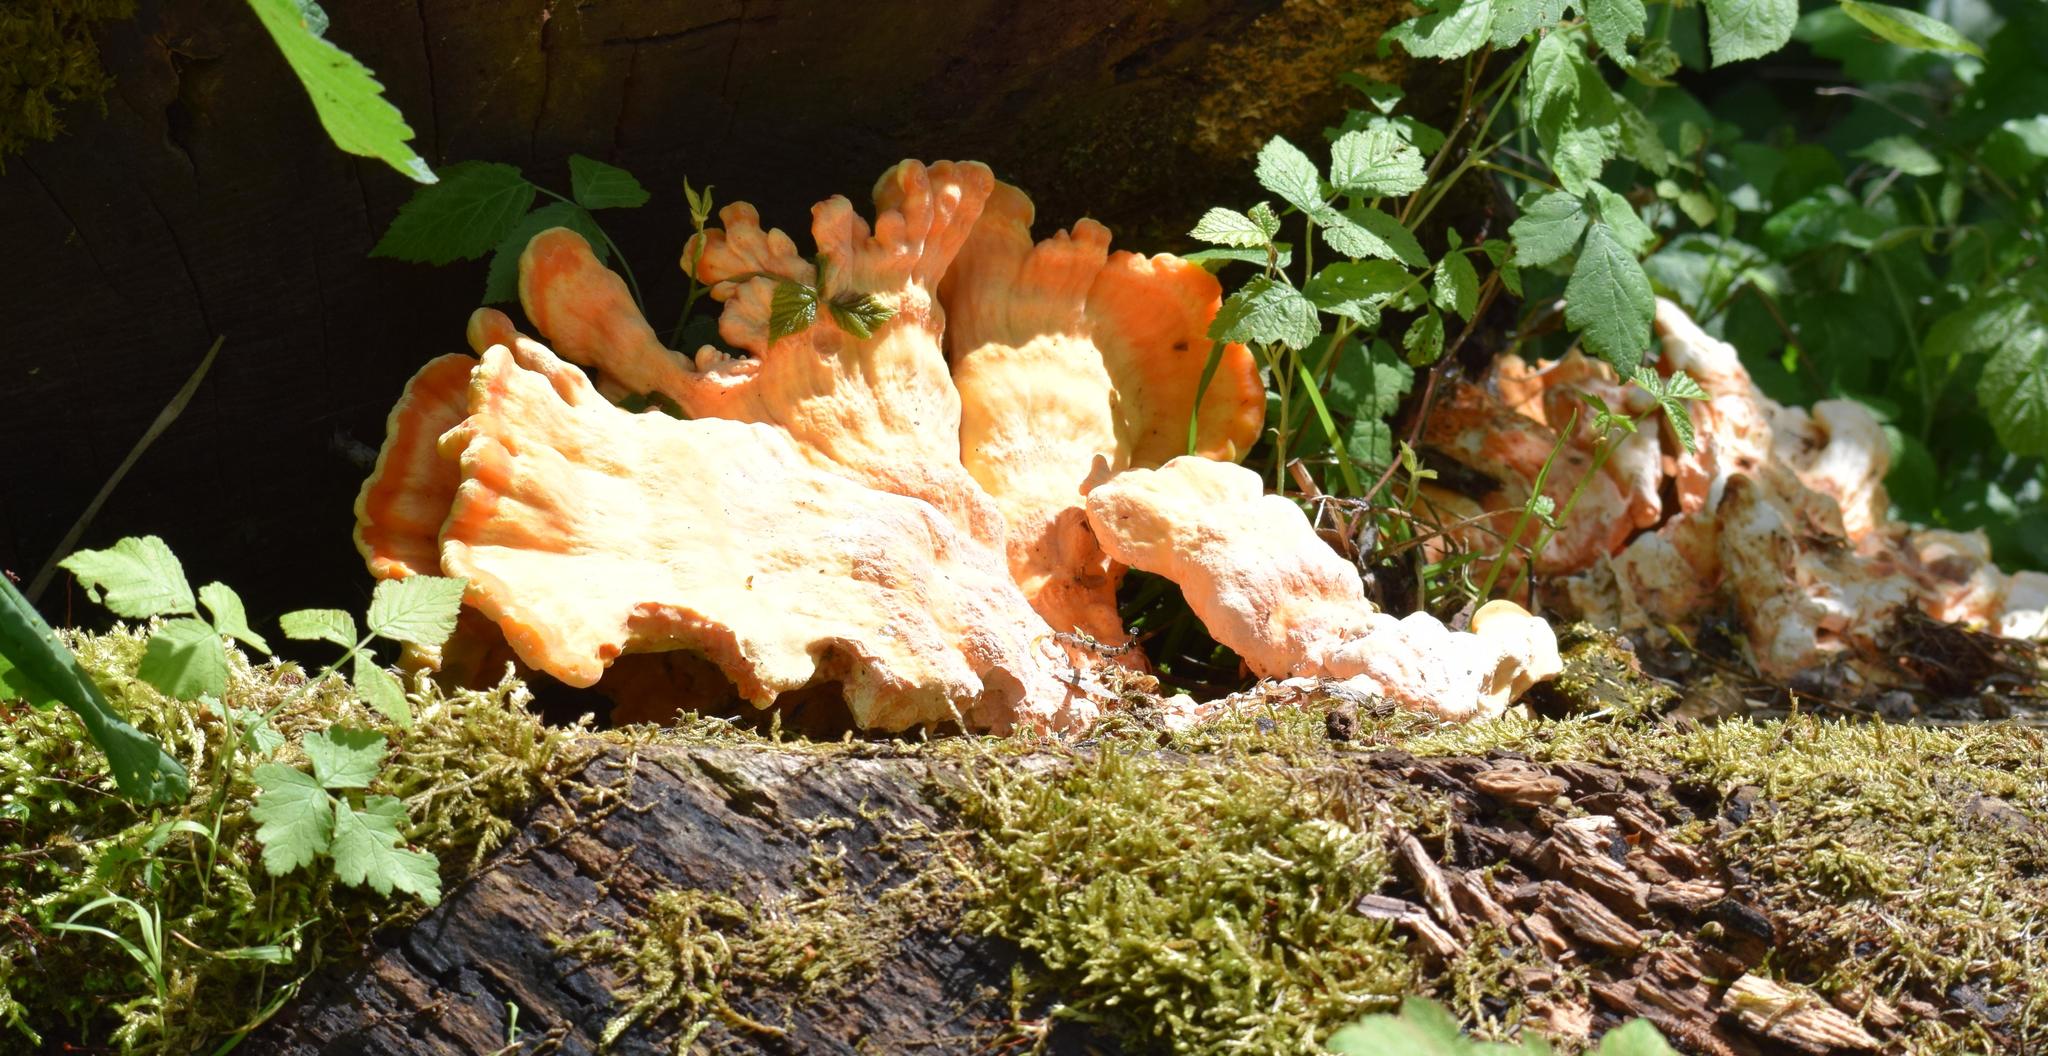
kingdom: Fungi
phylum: Basidiomycota
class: Agaricomycetes
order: Polyporales
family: Laetiporaceae
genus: Laetiporus
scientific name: Laetiporus sulphureus
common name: Chicken of the woods
